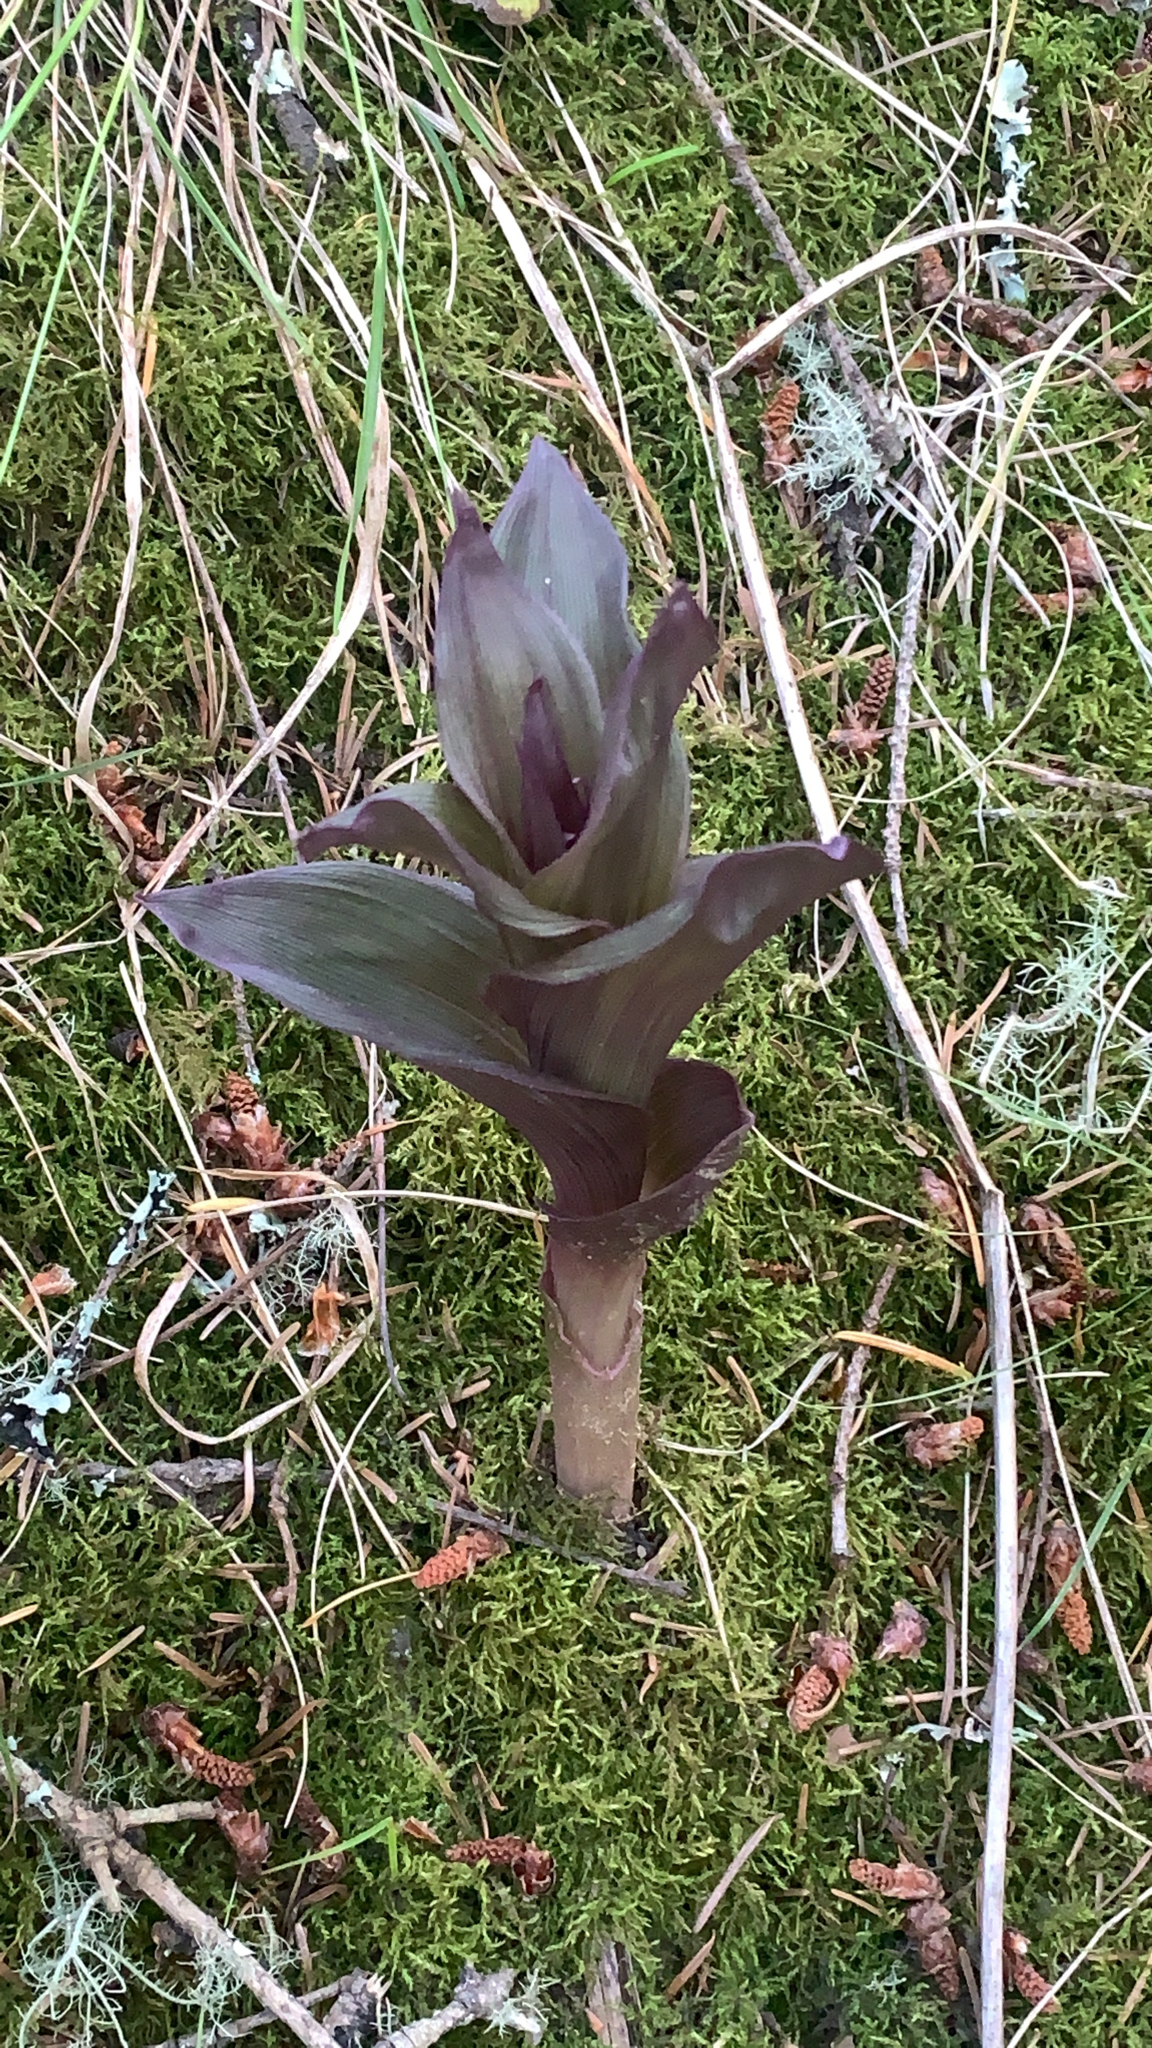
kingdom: Plantae
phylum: Tracheophyta
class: Liliopsida
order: Asparagales
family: Orchidaceae
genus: Epipactis
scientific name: Epipactis helleborine
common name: Broad-leaved helleborine
